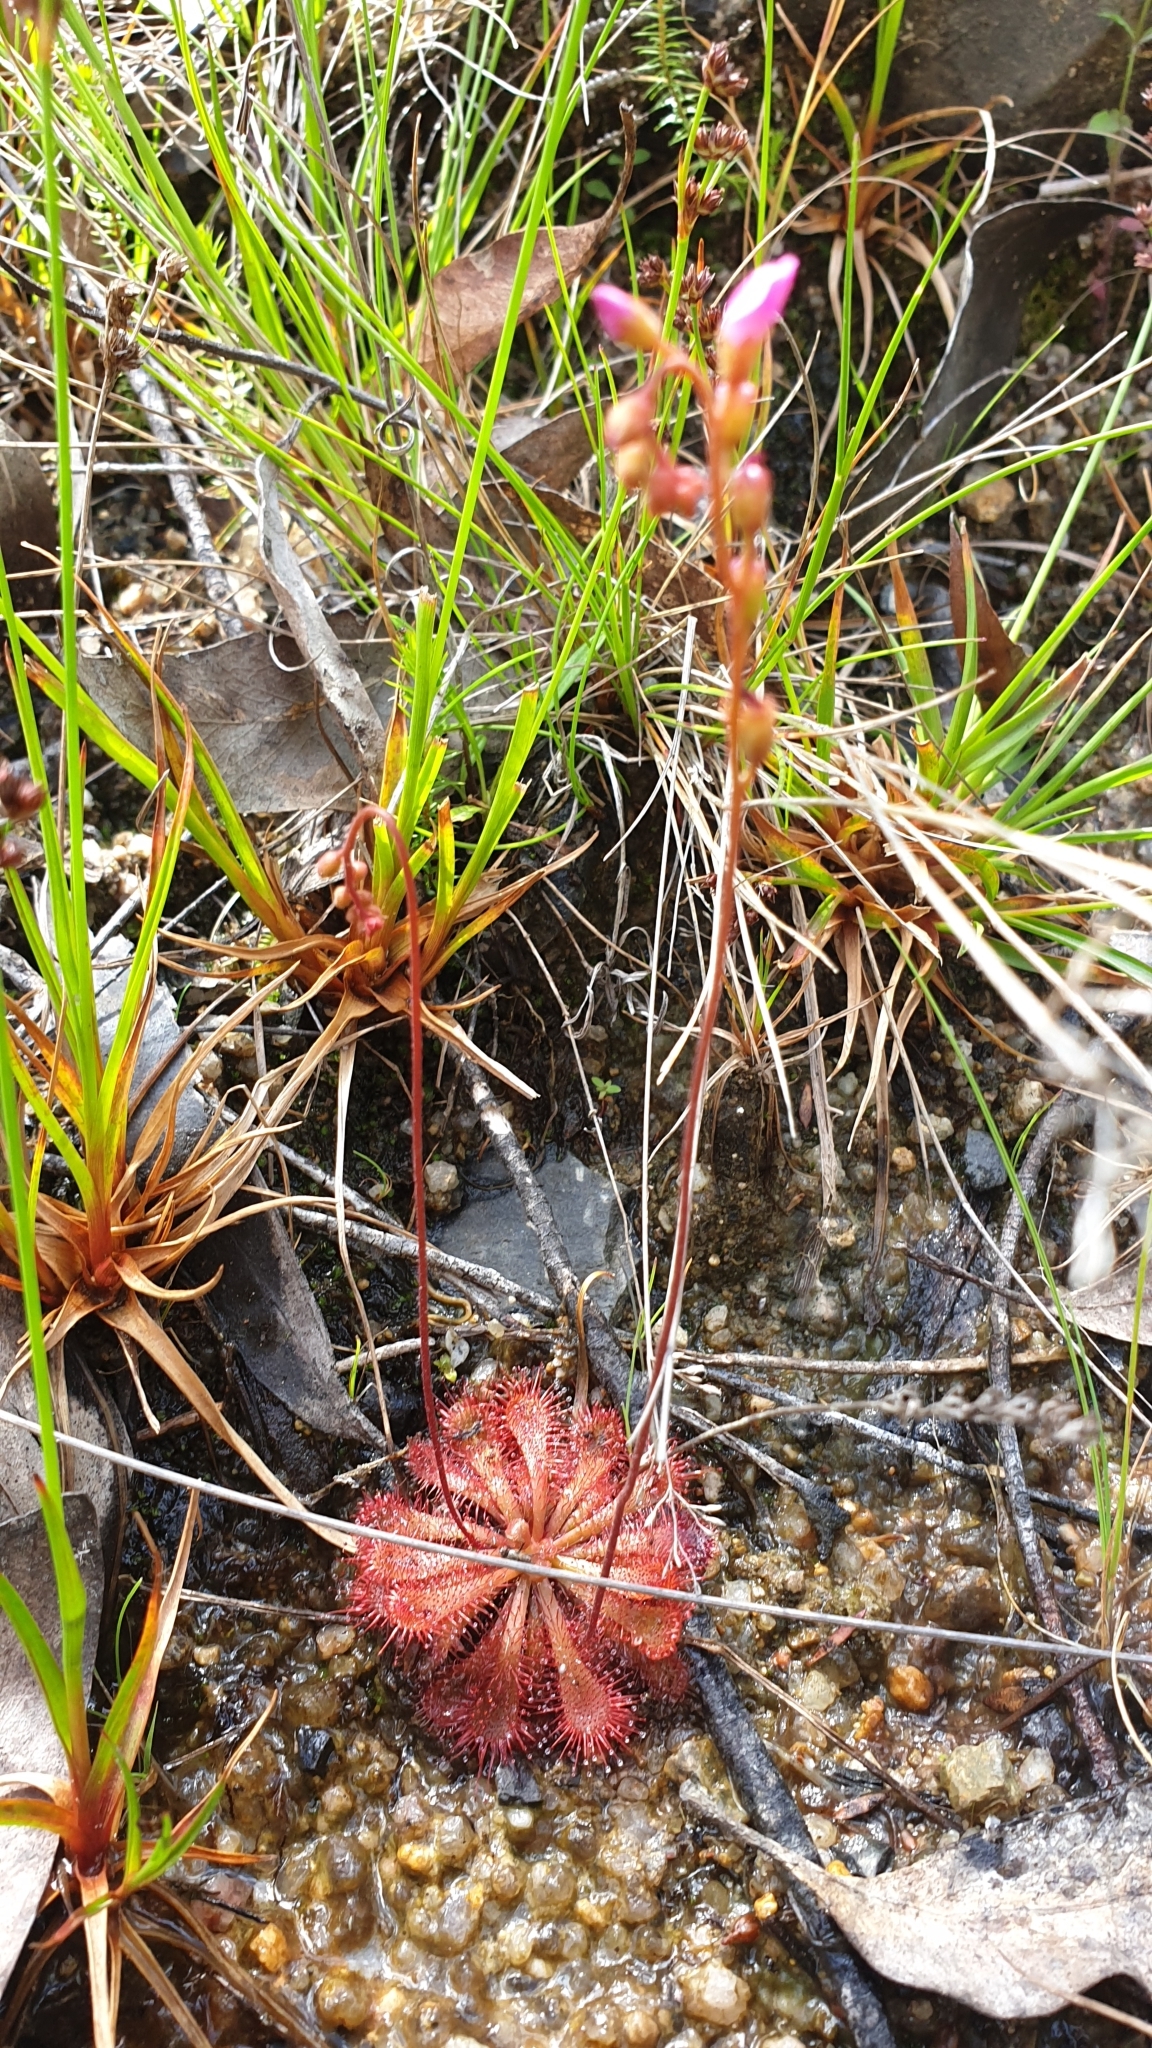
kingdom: Plantae
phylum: Tracheophyta
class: Magnoliopsida
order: Caryophyllales
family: Droseraceae
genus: Drosera
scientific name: Drosera spatulata
